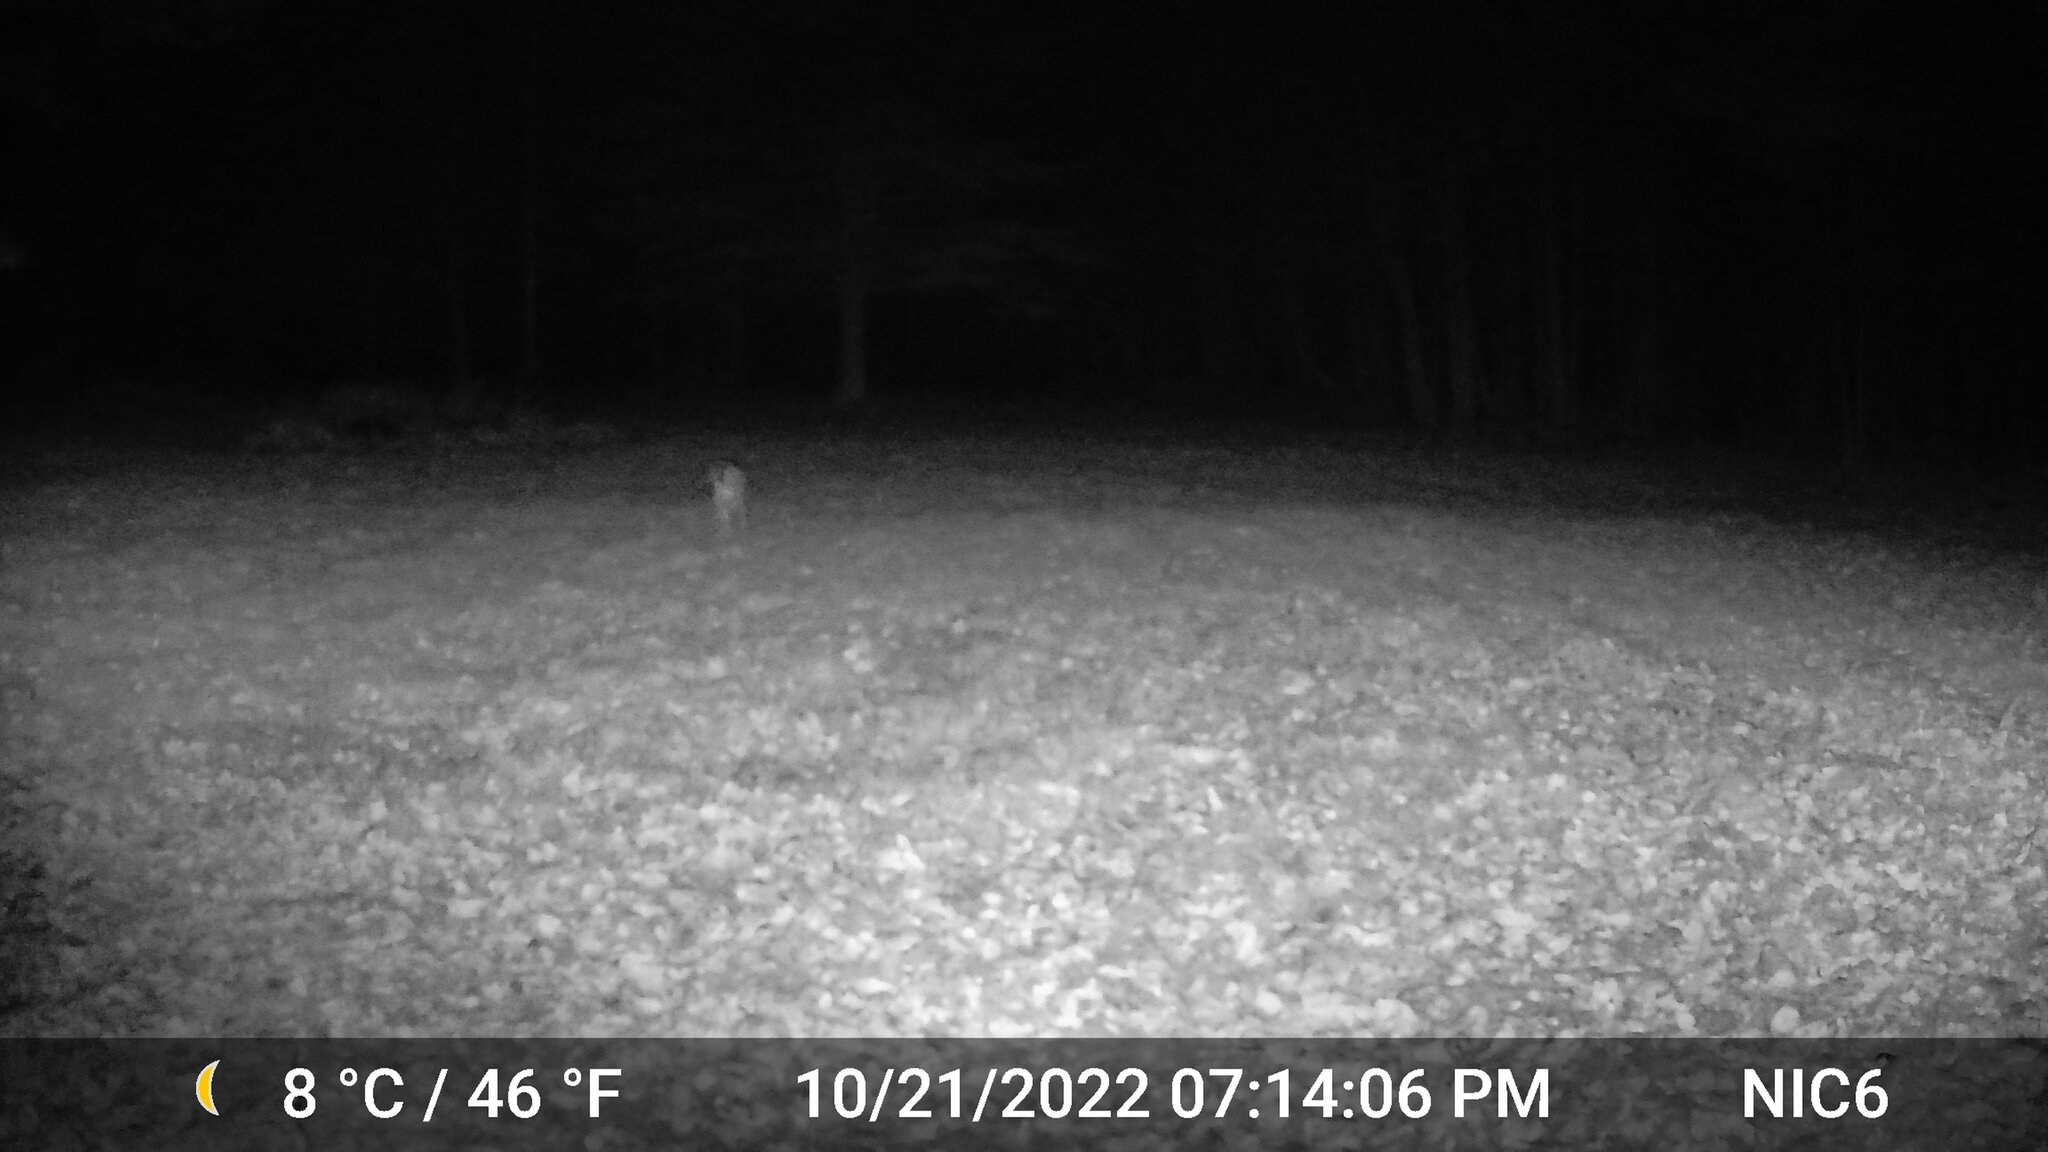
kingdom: Animalia
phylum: Chordata
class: Mammalia
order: Artiodactyla
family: Cervidae
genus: Odocoileus
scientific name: Odocoileus virginianus
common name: White-tailed deer
